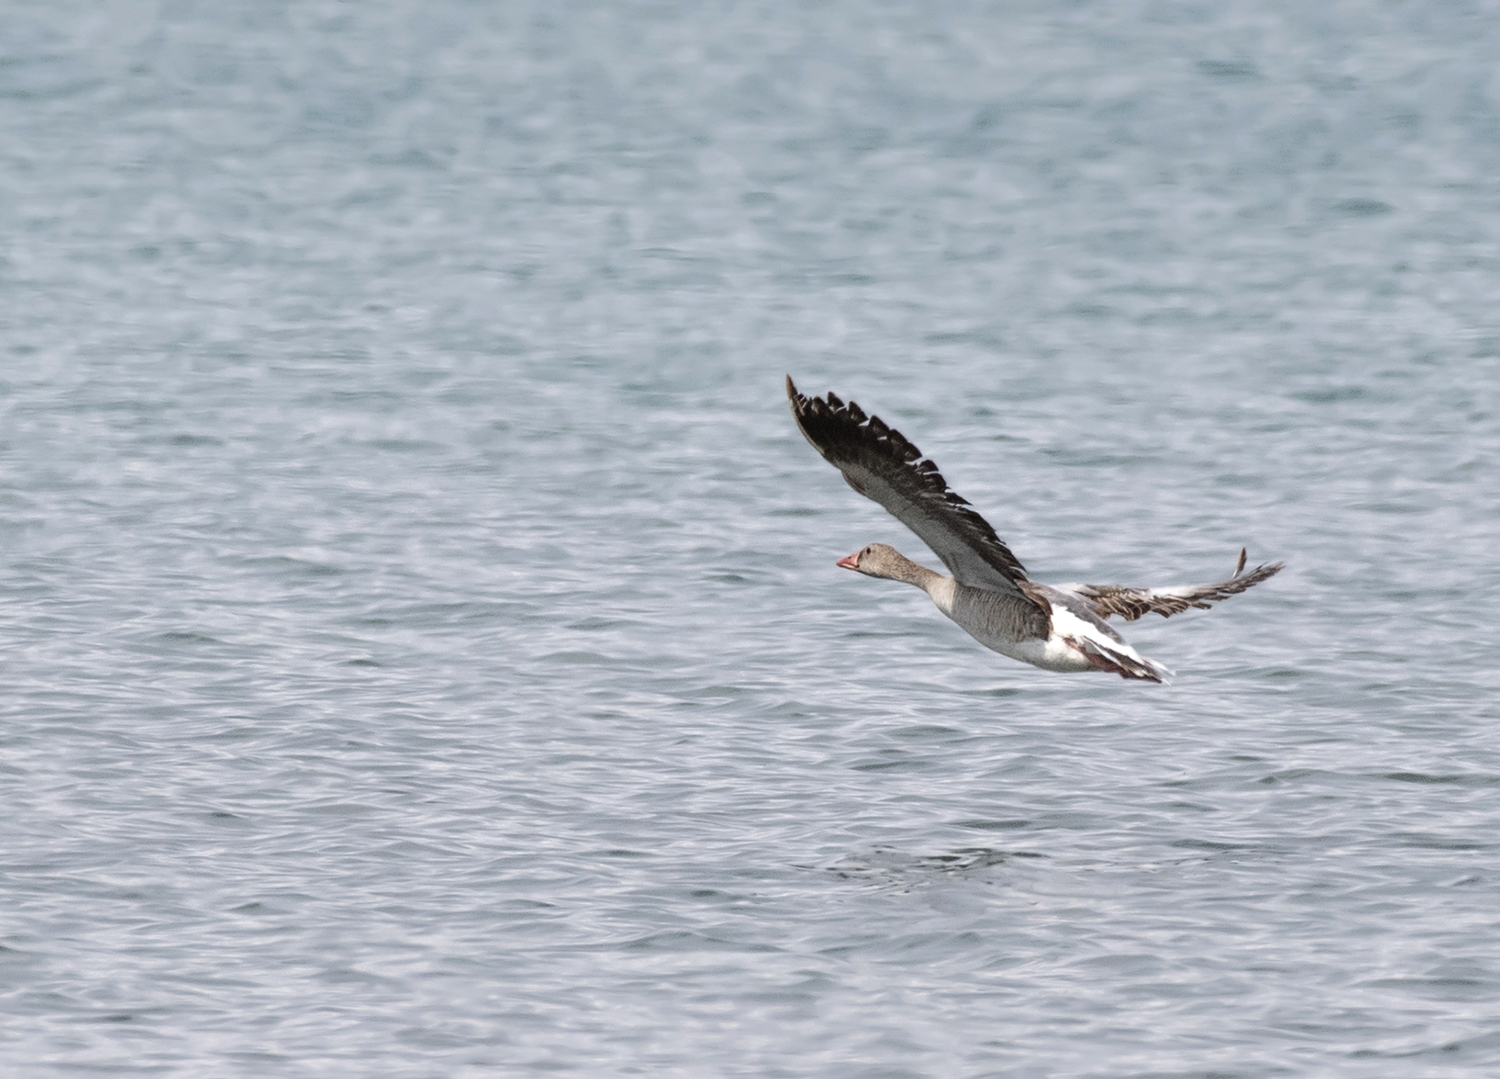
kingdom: Animalia
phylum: Chordata
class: Aves
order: Anseriformes
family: Anatidae
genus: Anser
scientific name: Anser anser
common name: Greylag goose
